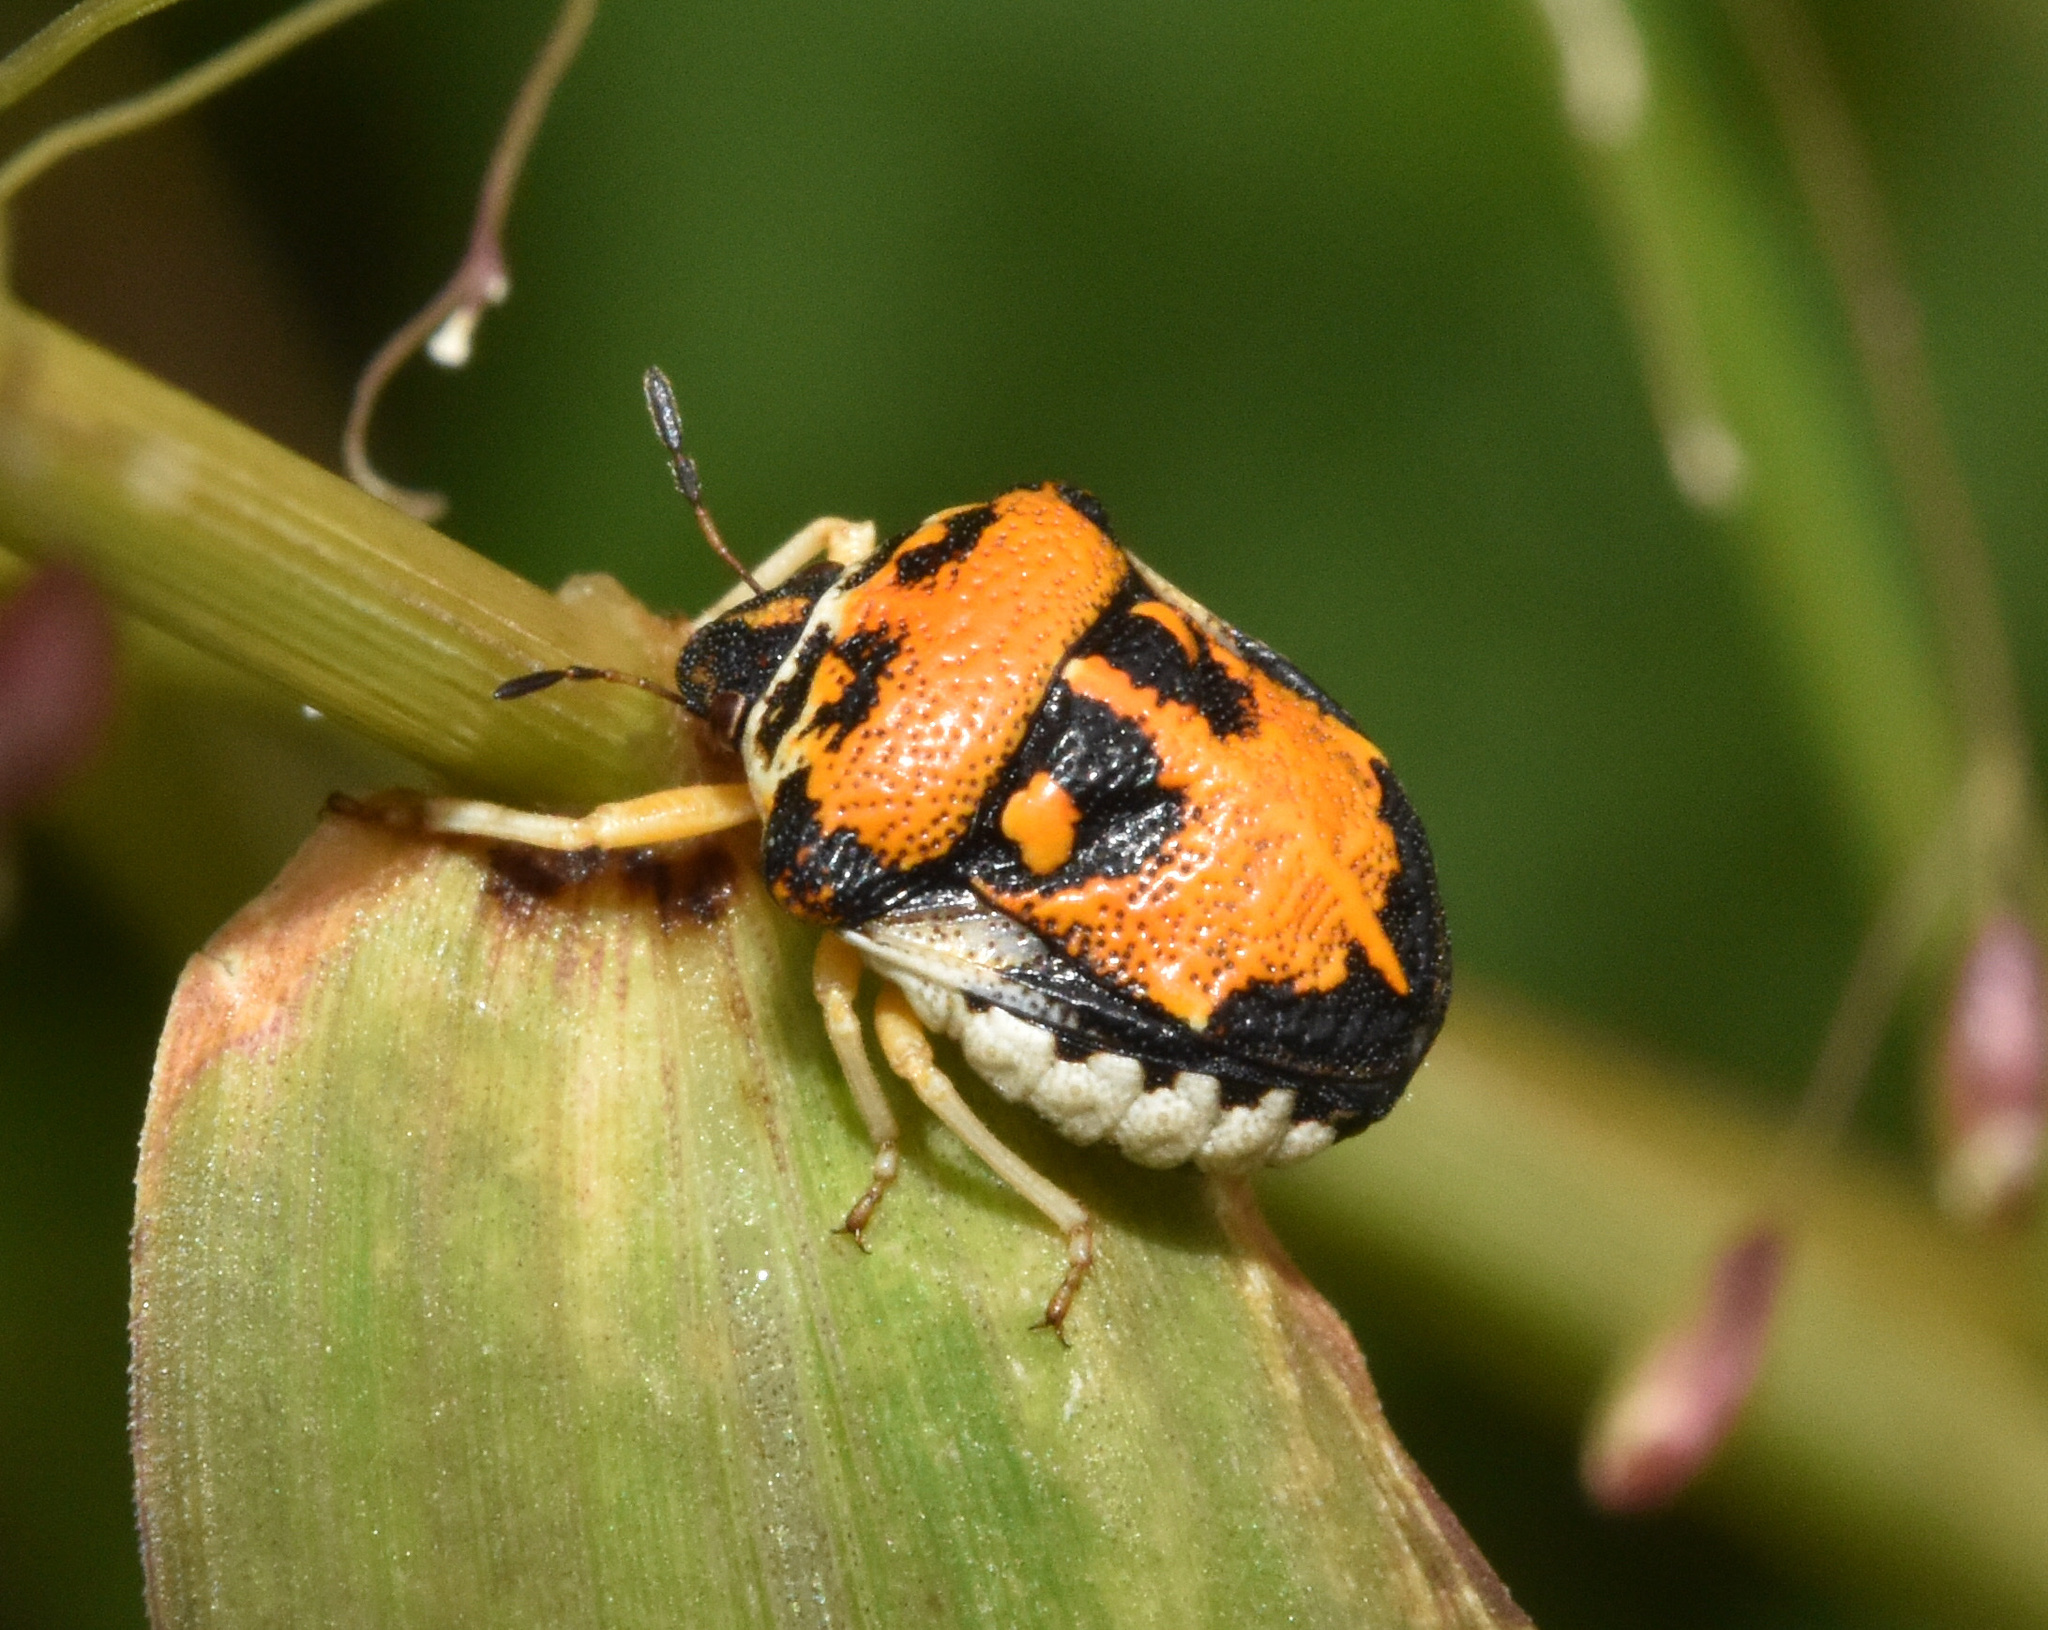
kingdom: Animalia
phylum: Arthropoda
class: Insecta
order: Hemiptera
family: Pentatomidae
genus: Bolbocoris
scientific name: Bolbocoris rufus
